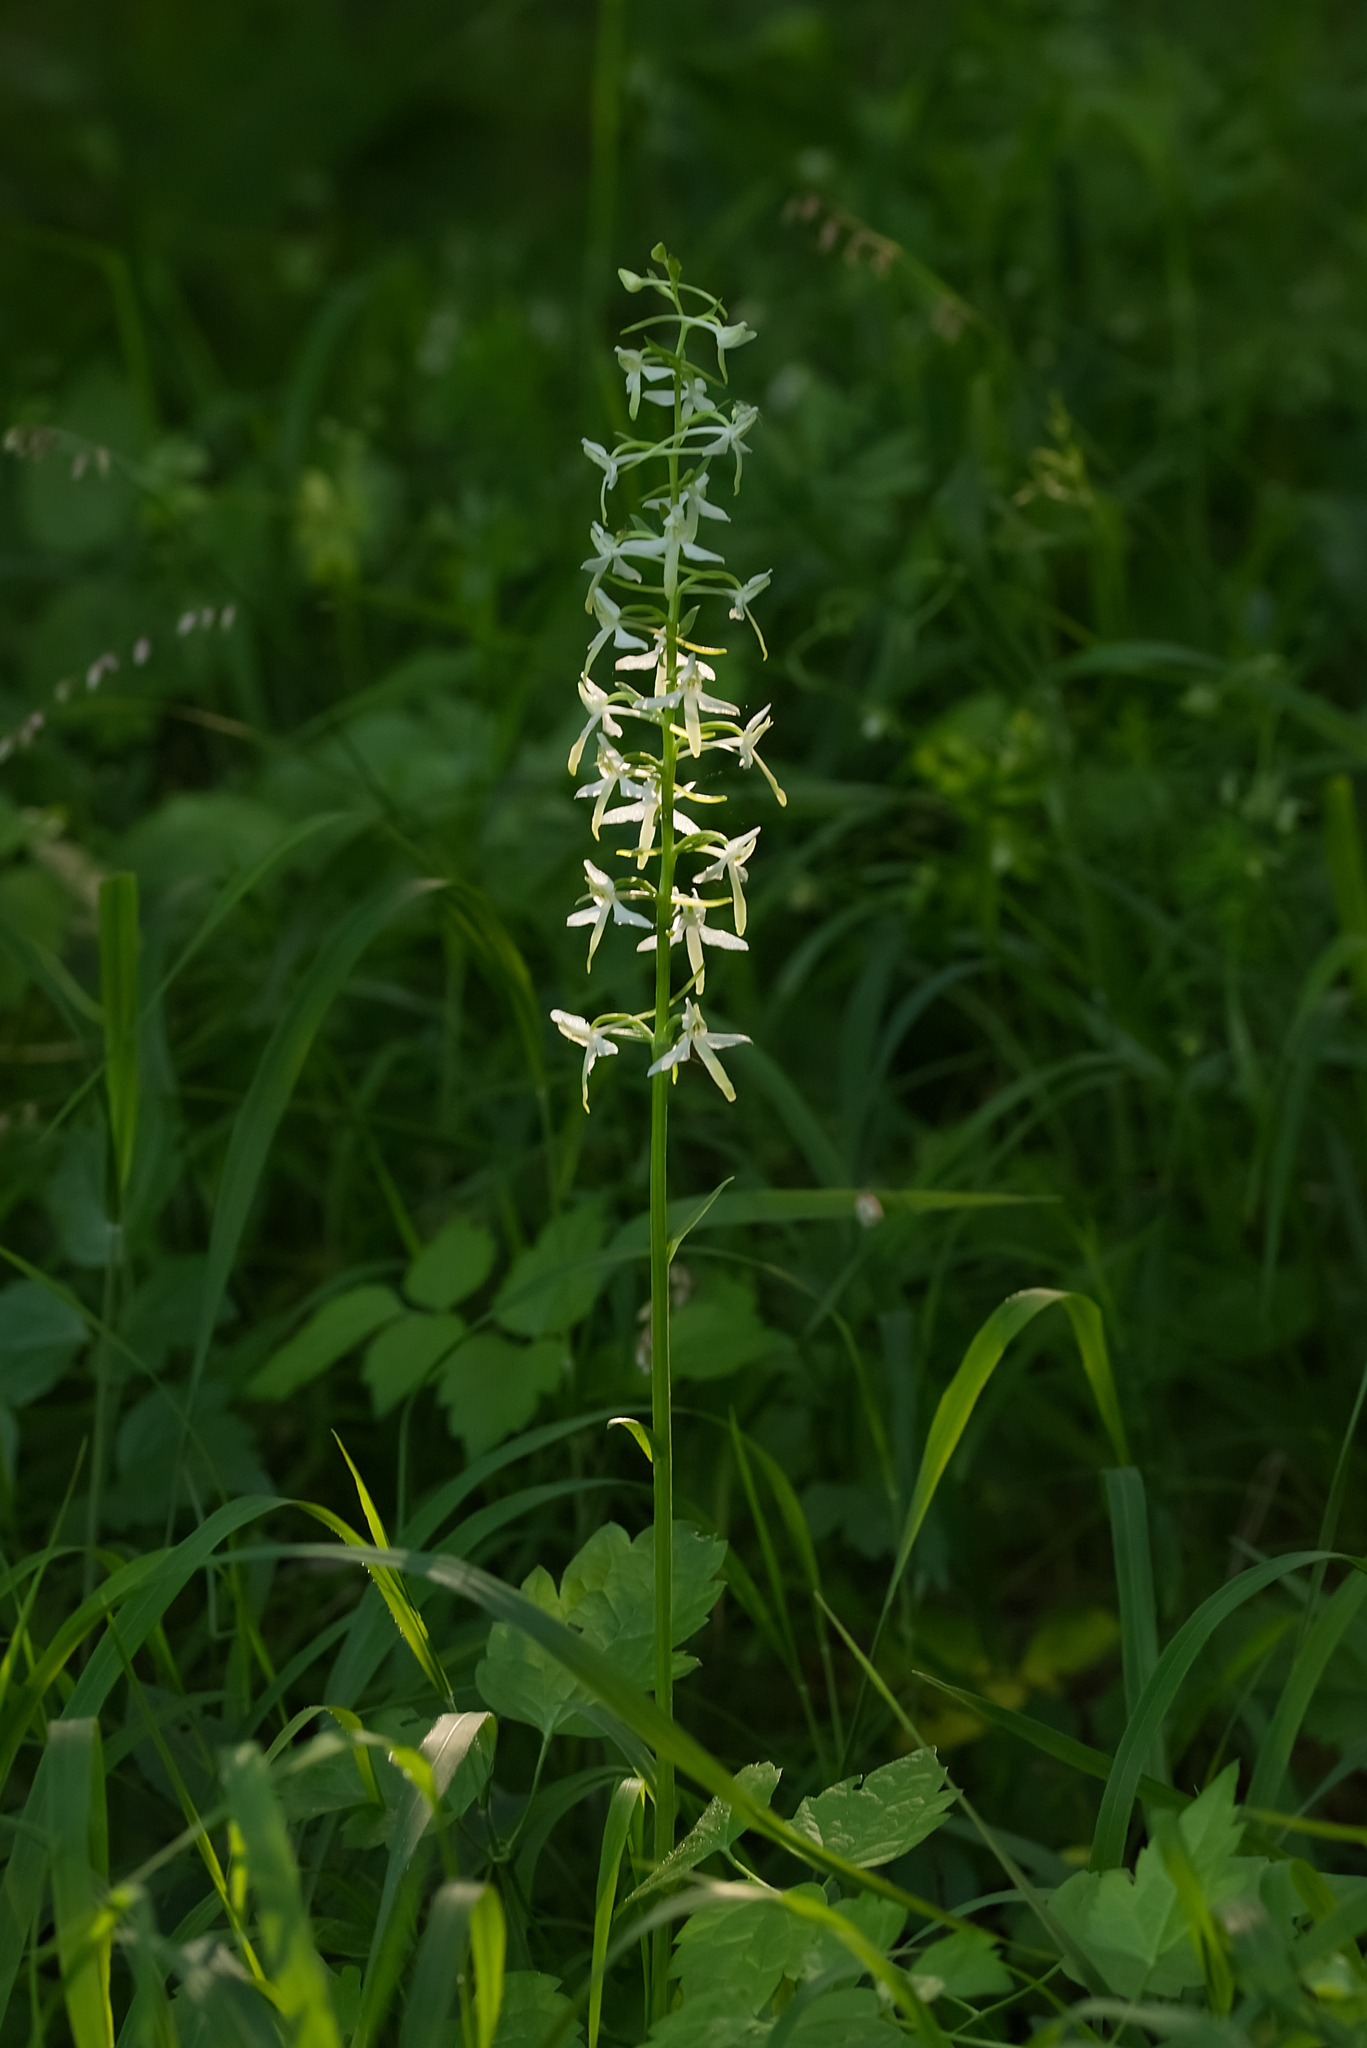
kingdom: Plantae
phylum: Tracheophyta
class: Liliopsida
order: Asparagales
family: Orchidaceae
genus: Platanthera
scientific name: Platanthera bifolia
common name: Lesser butterfly-orchid
